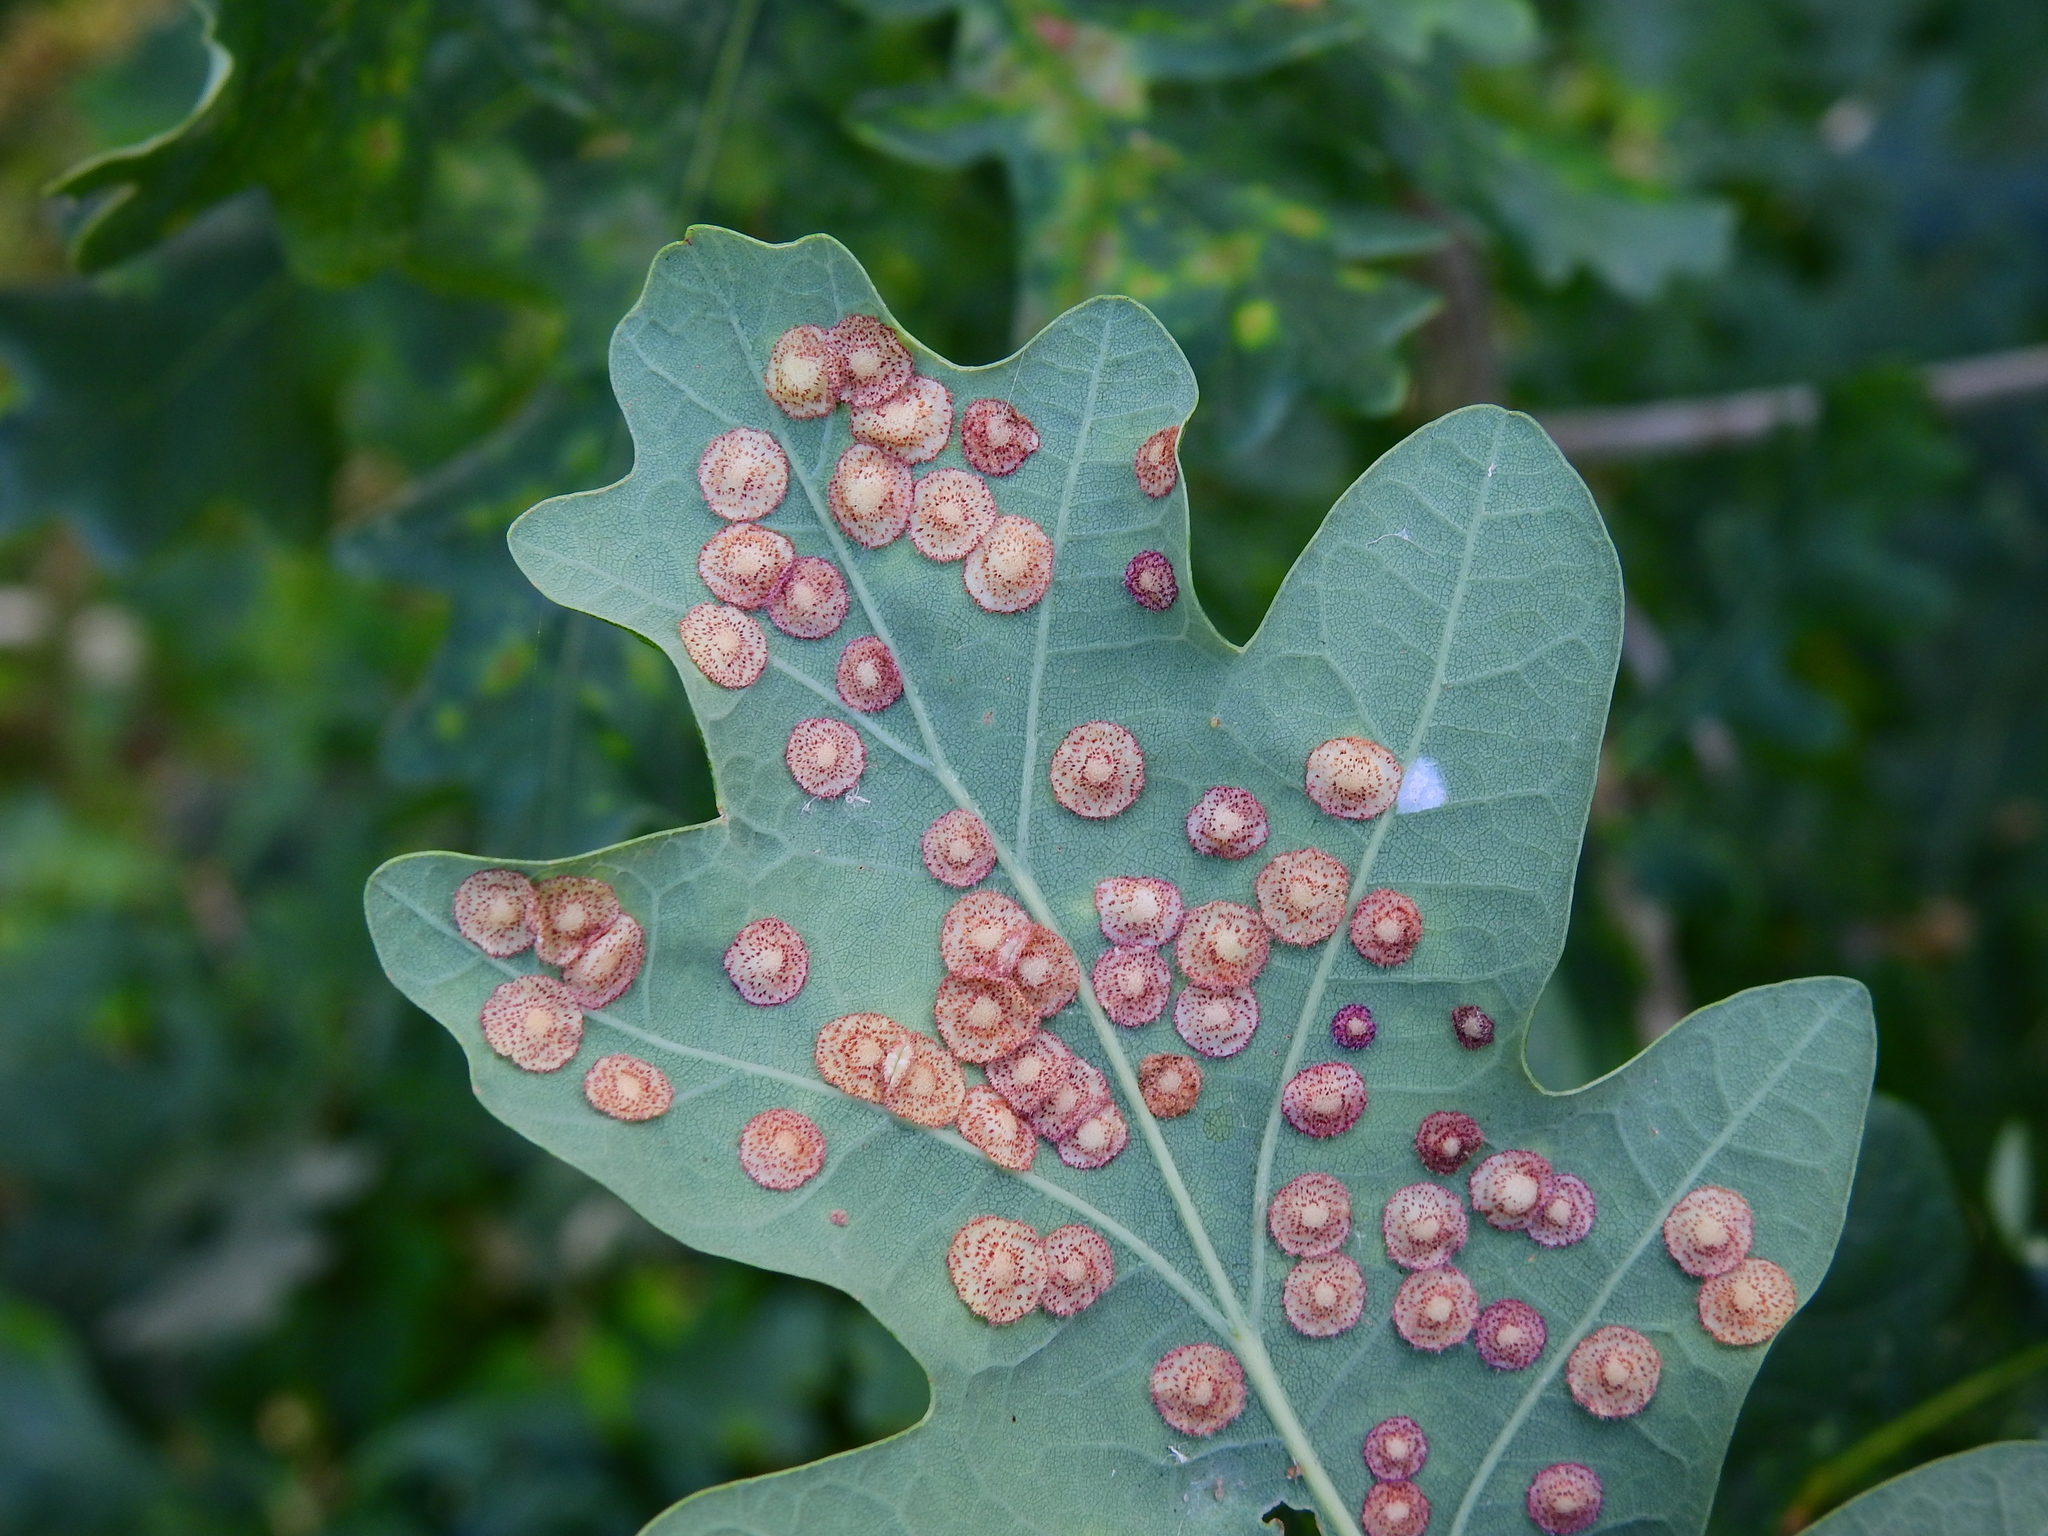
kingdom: Animalia
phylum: Arthropoda
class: Insecta
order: Hymenoptera
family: Cynipidae
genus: Neuroterus
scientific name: Neuroterus quercusbaccarum
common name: Common spangle gall
